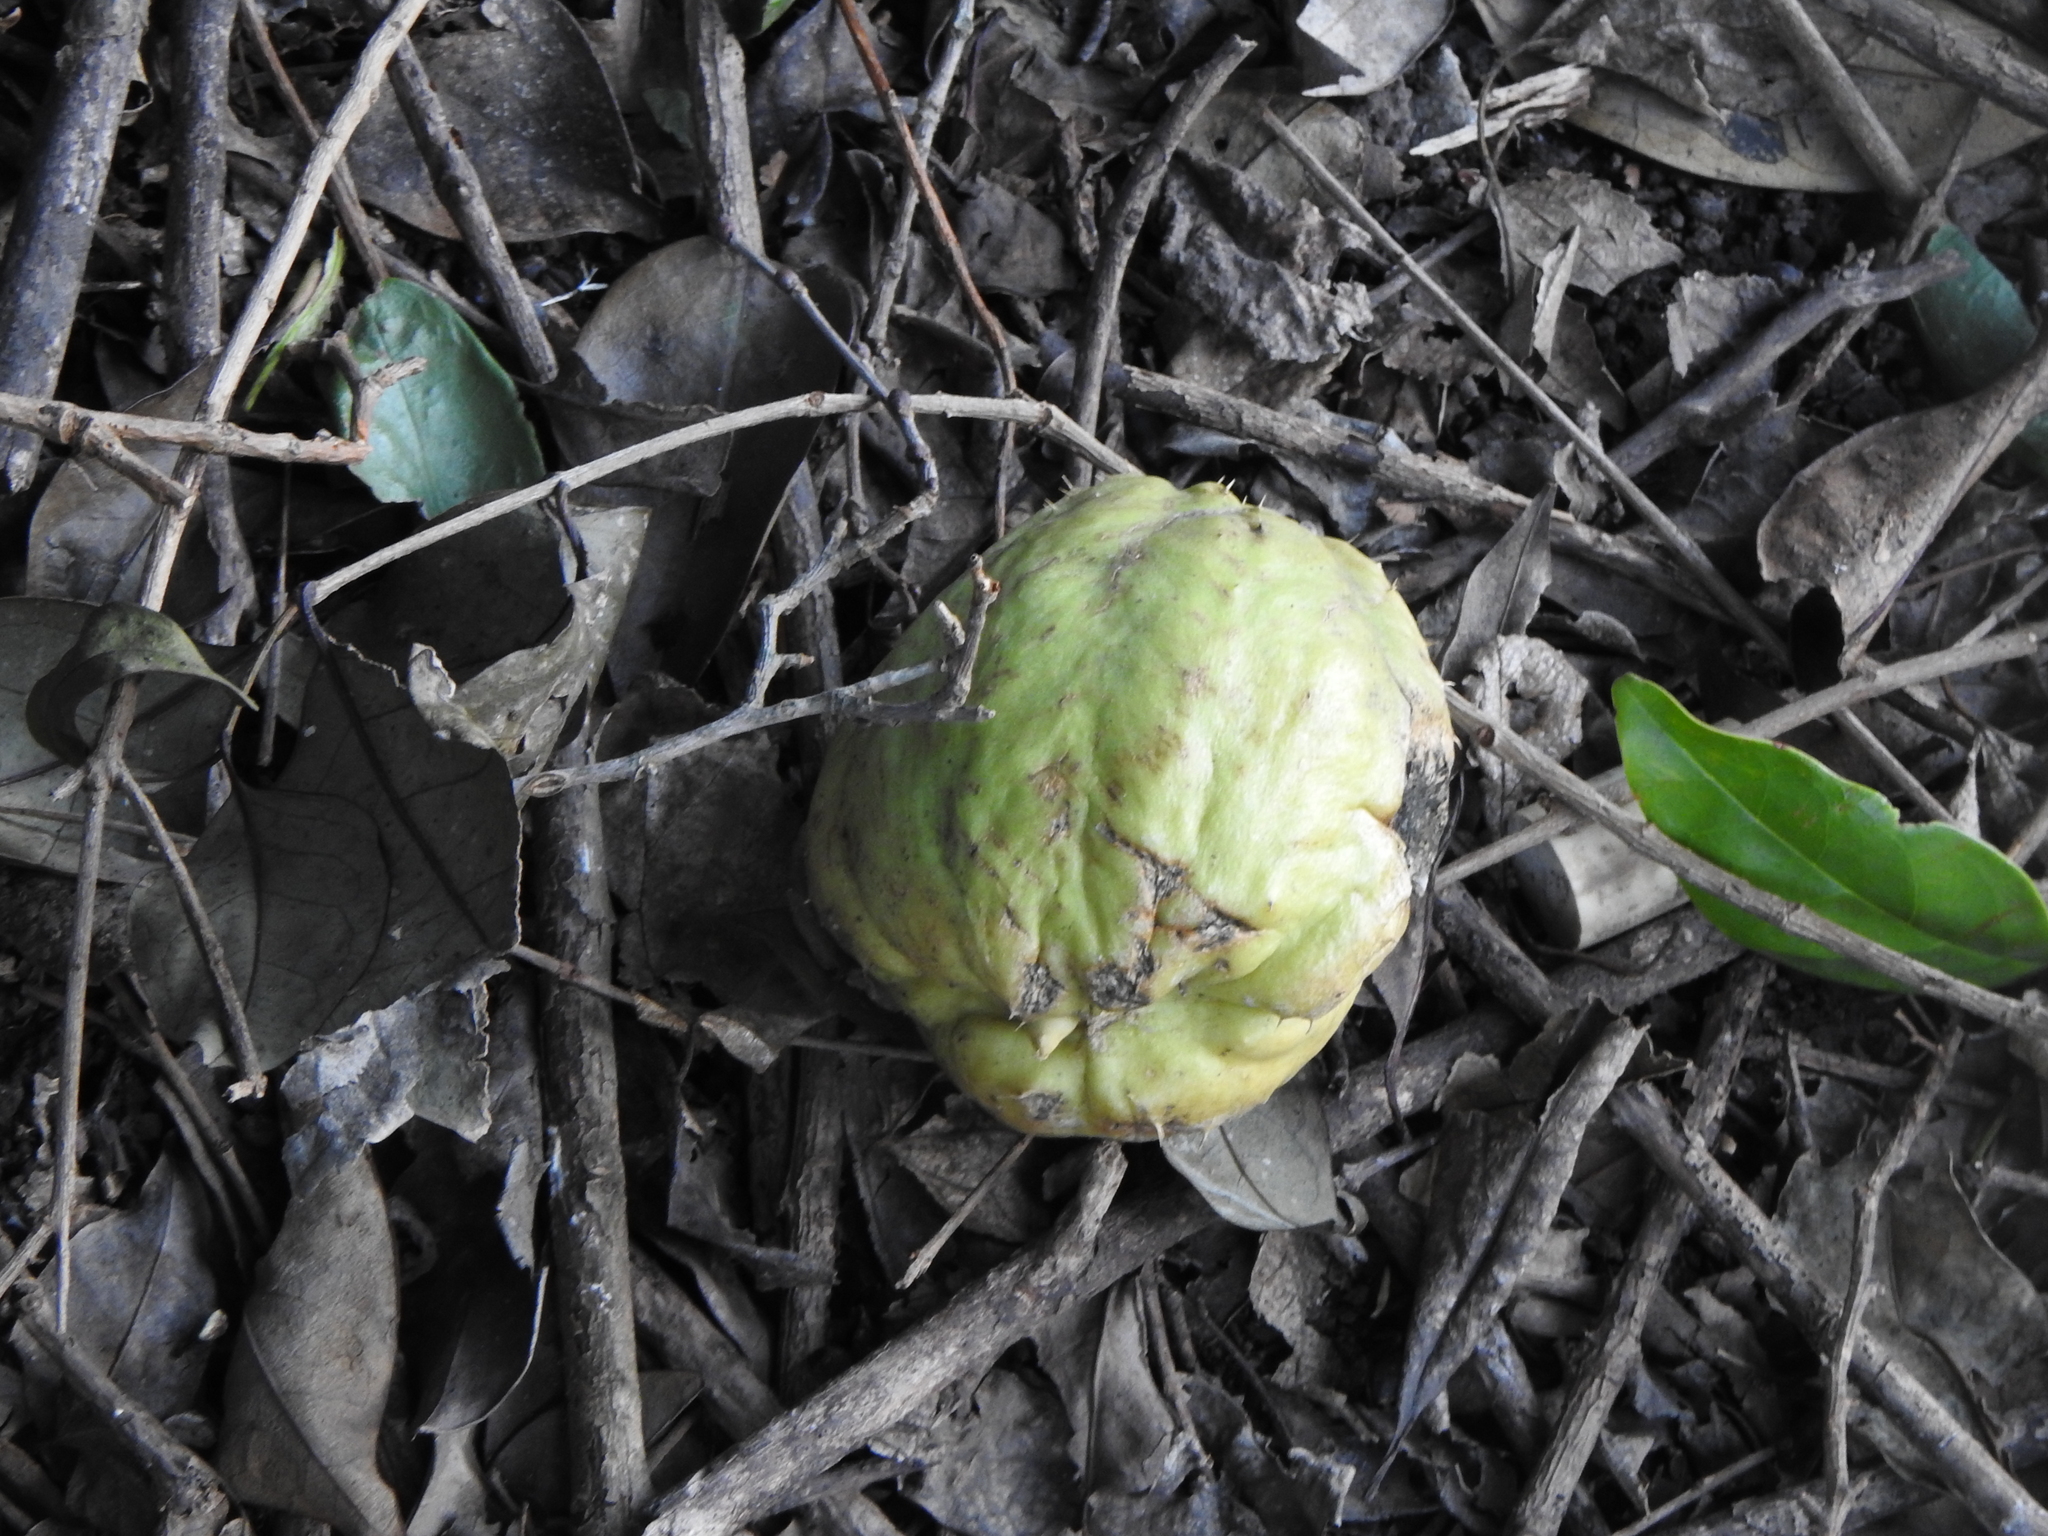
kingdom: Plantae
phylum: Tracheophyta
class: Magnoliopsida
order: Cucurbitales
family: Cucurbitaceae
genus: Sechium
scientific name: Sechium edule
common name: Chayote
